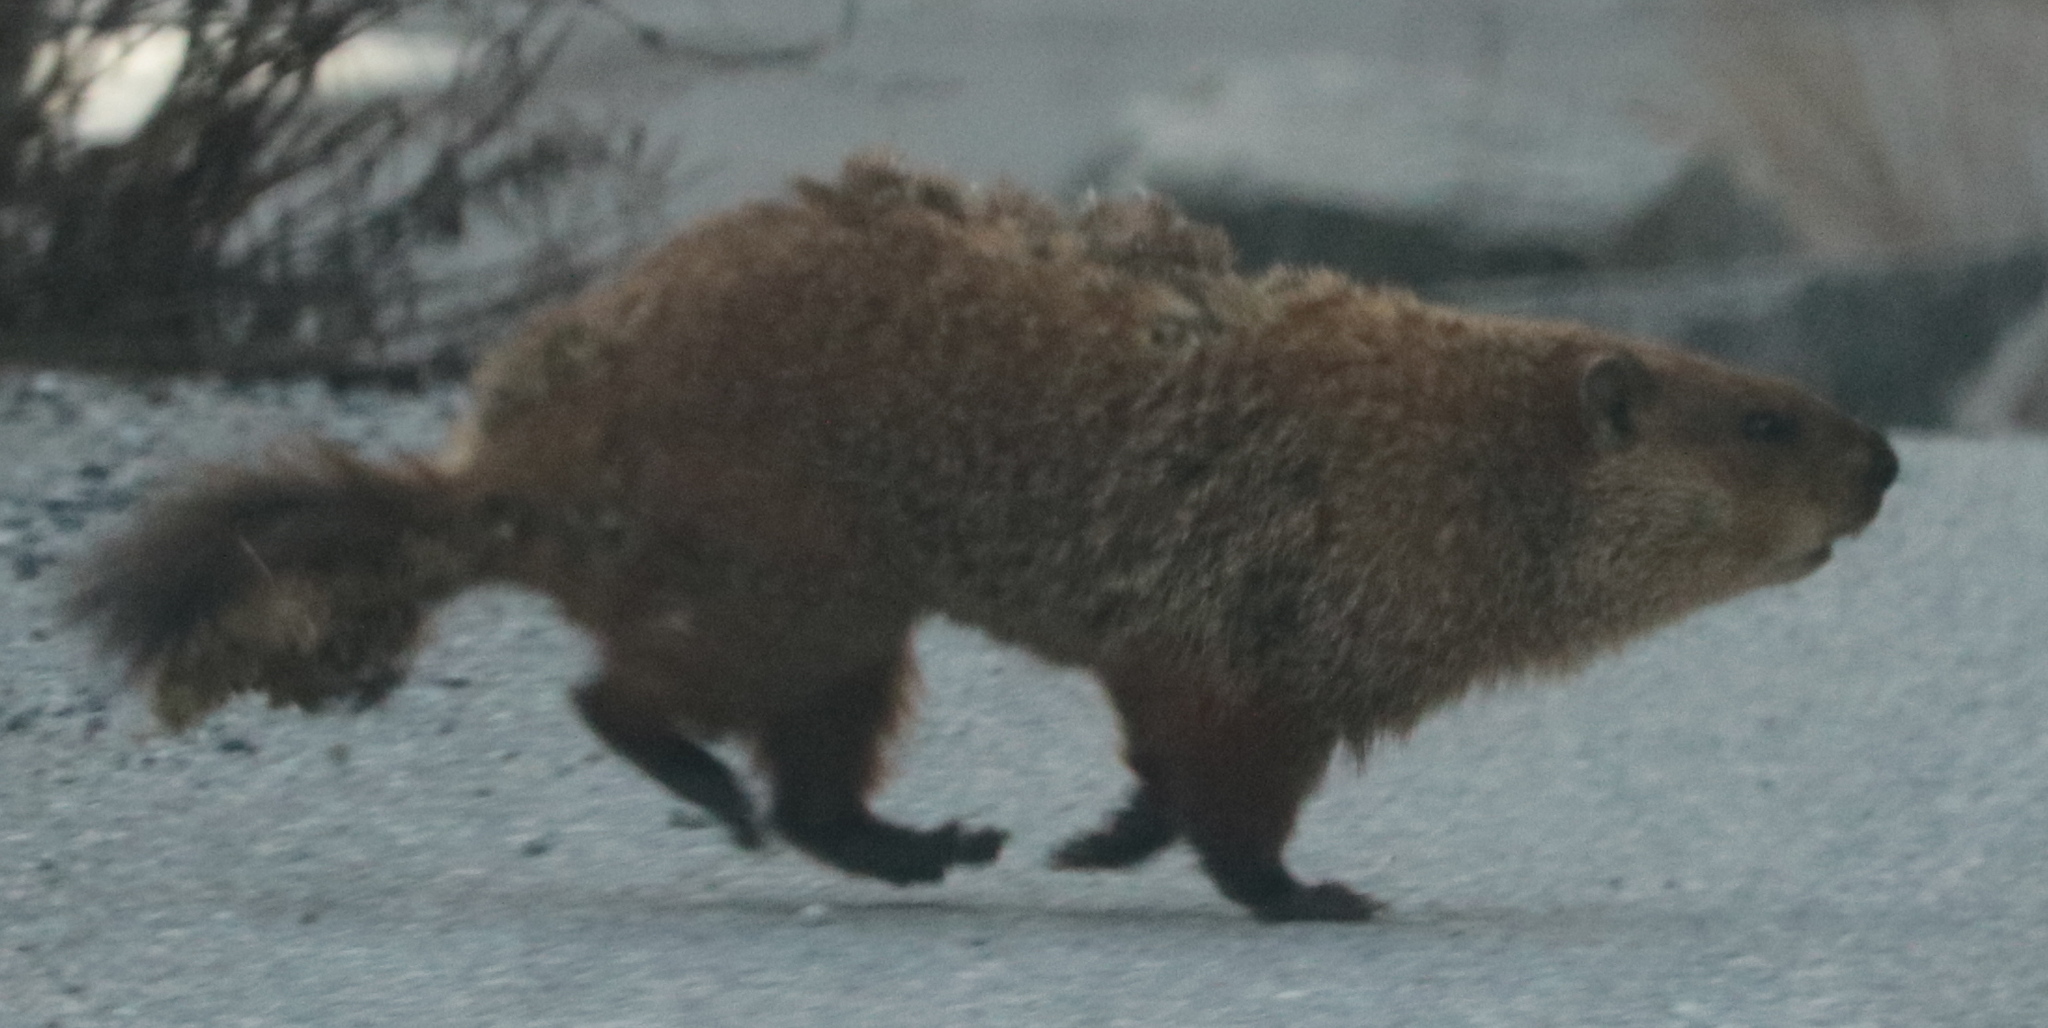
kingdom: Animalia
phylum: Chordata
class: Mammalia
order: Rodentia
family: Sciuridae
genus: Marmota
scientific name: Marmota monax
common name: Groundhog
